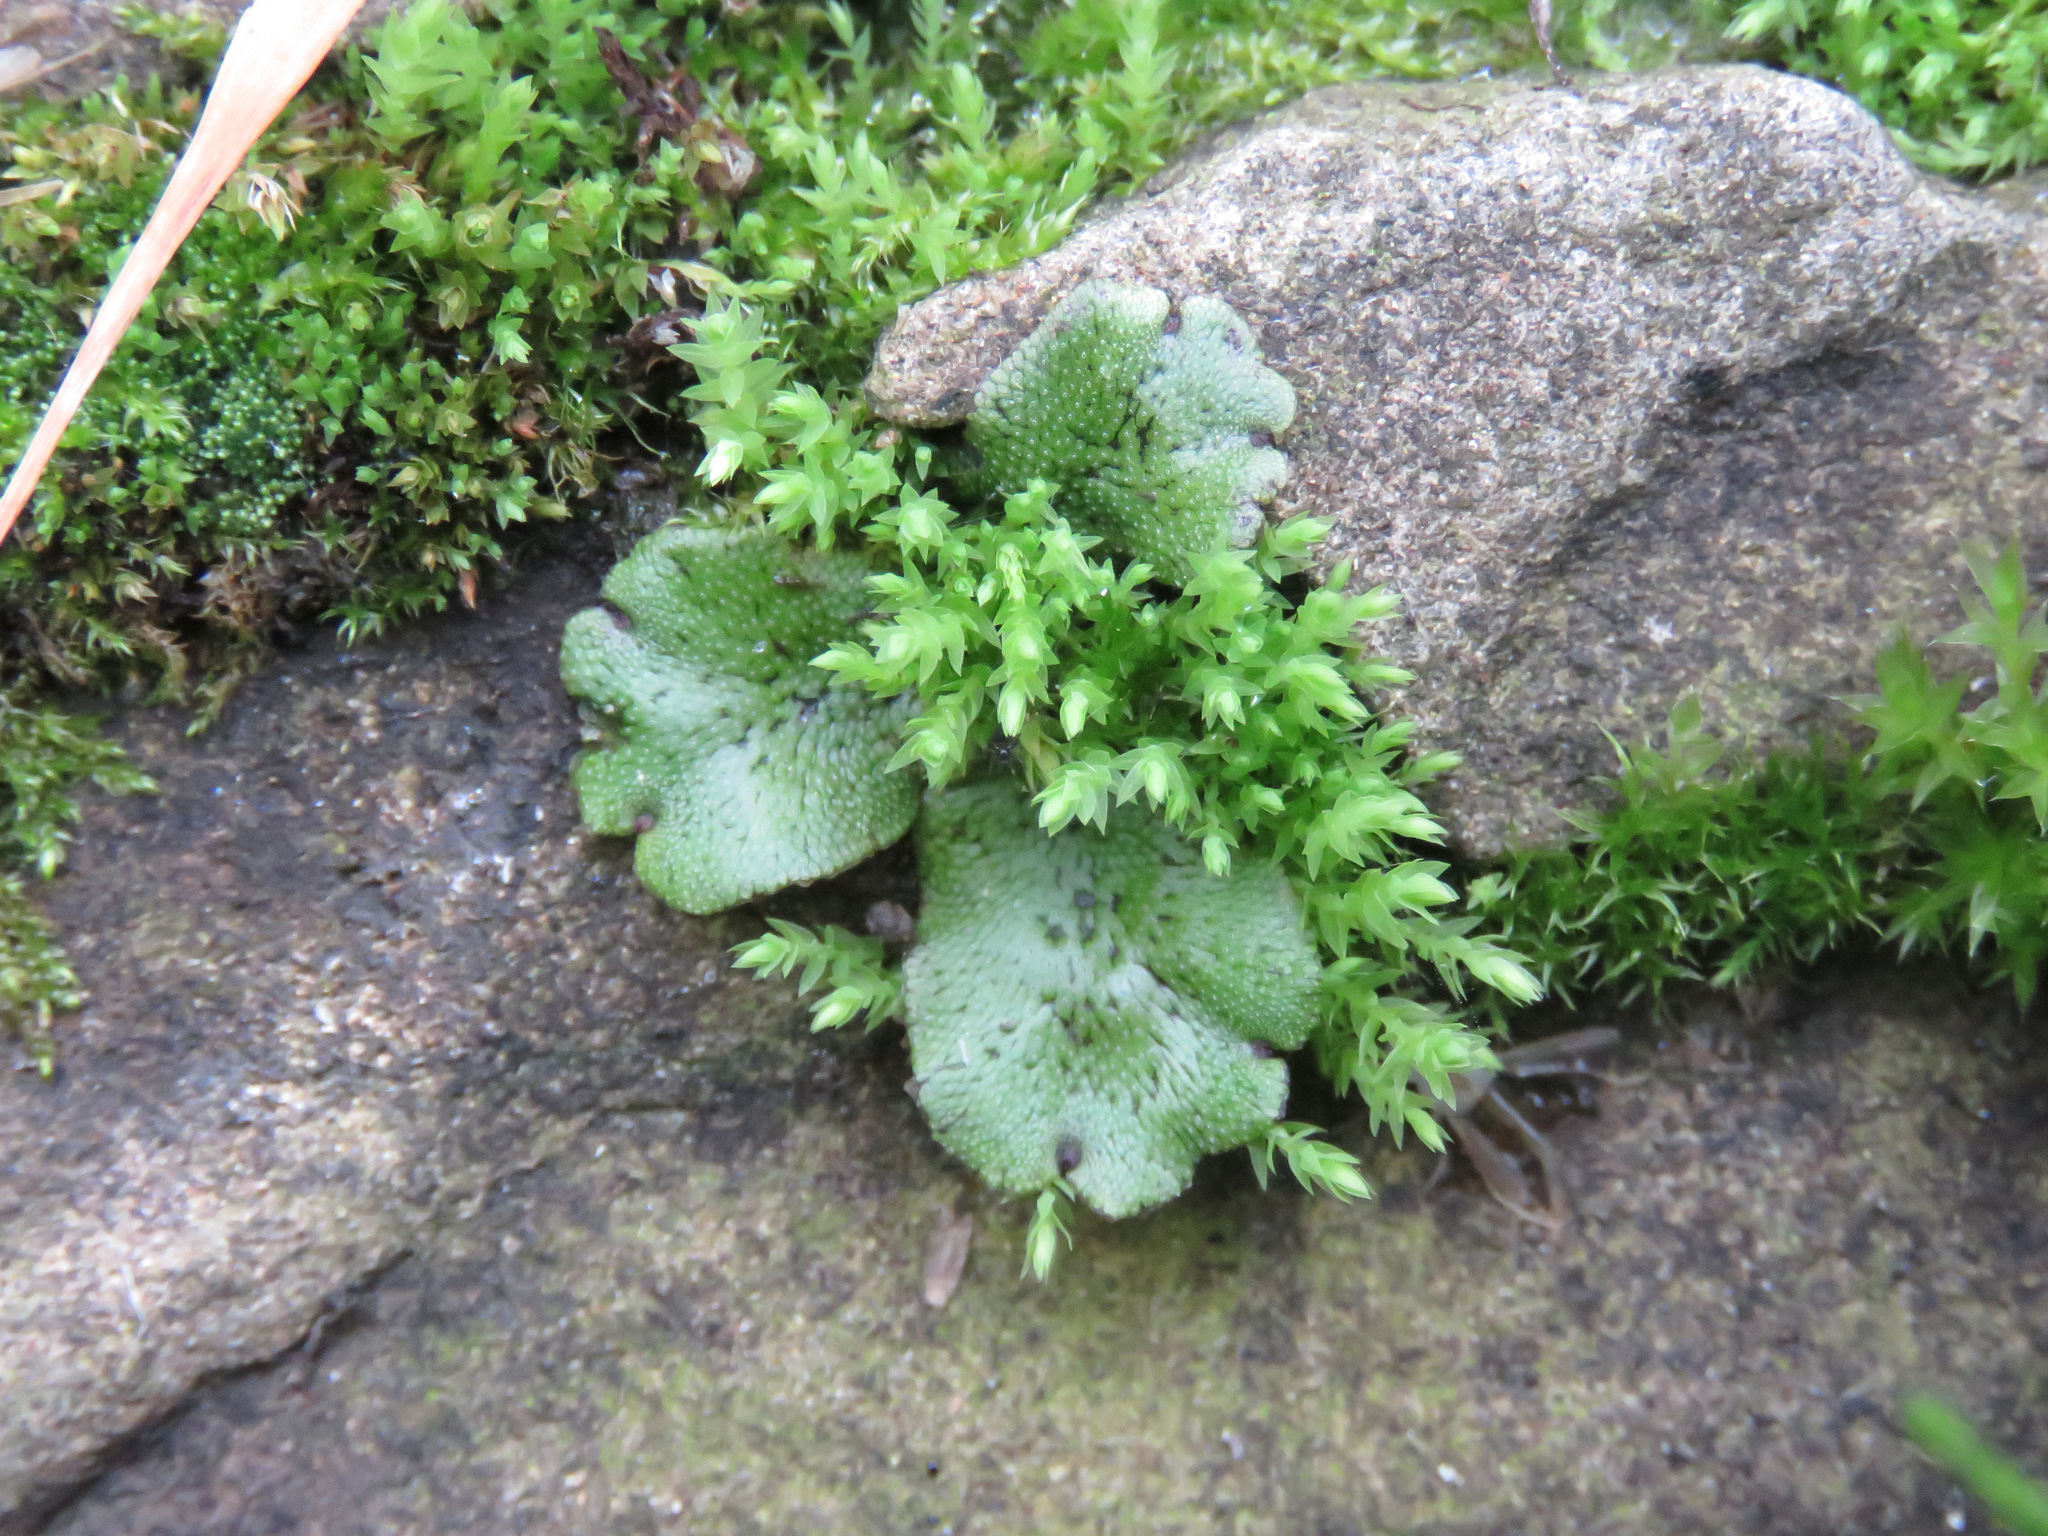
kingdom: Plantae
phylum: Marchantiophyta
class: Marchantiopsida
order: Marchantiales
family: Marchantiaceae
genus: Marchantia
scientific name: Marchantia polymorpha
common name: Common liverwort
